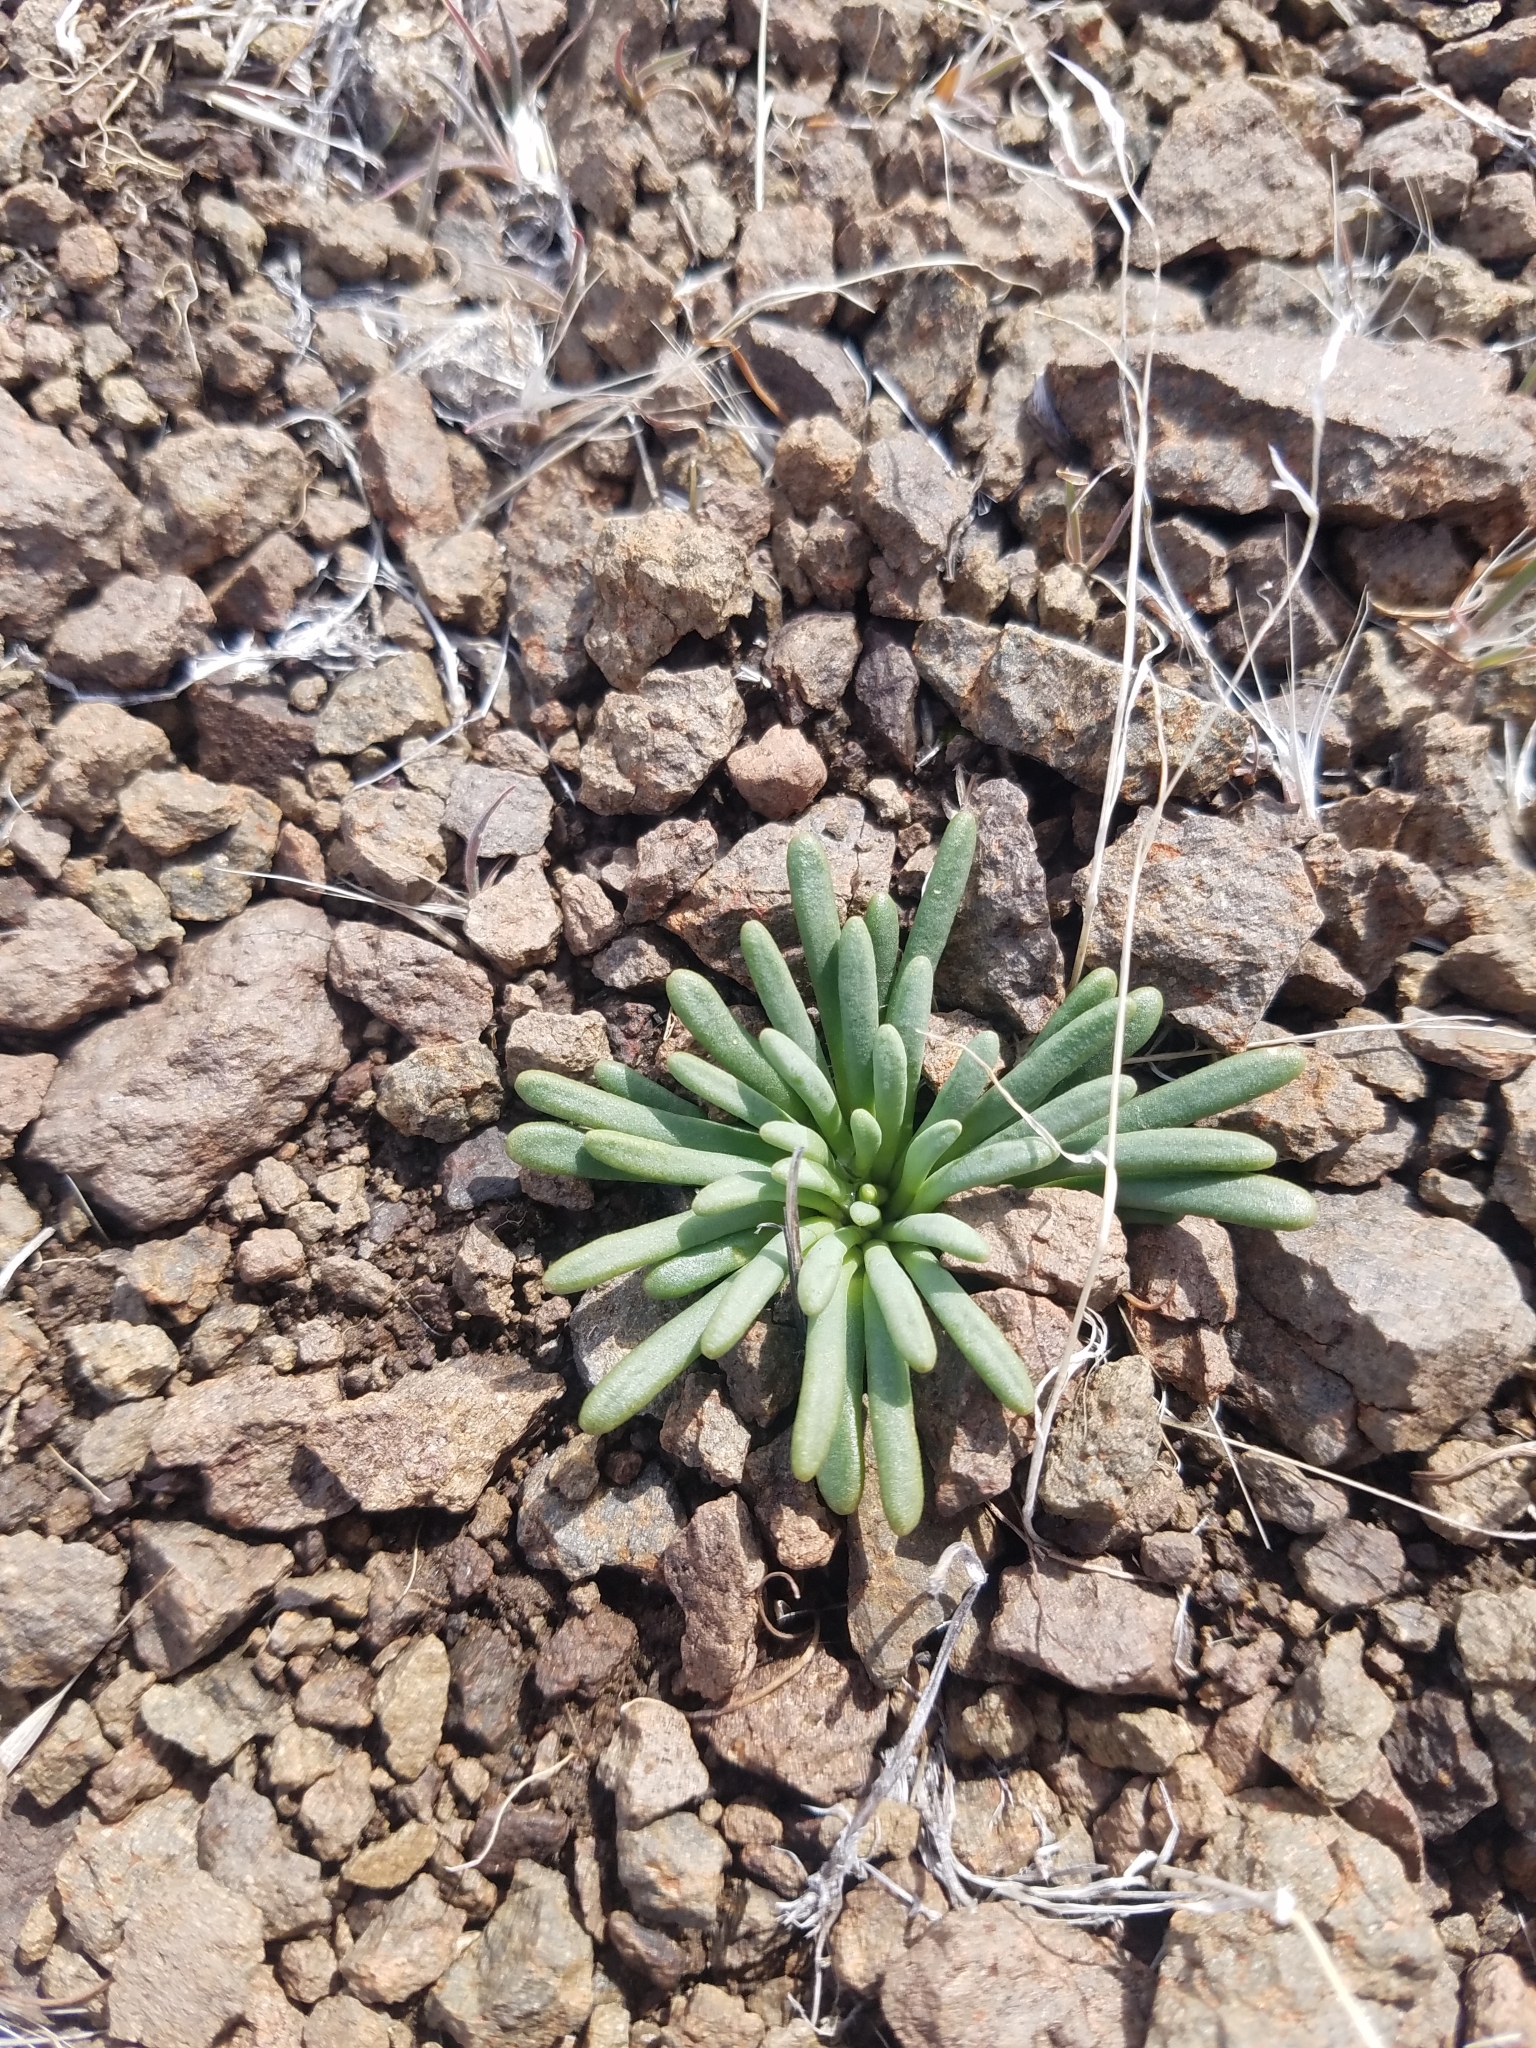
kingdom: Plantae
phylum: Tracheophyta
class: Magnoliopsida
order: Caryophyllales
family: Montiaceae
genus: Lewisia
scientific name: Lewisia rediviva
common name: Bitter-root
